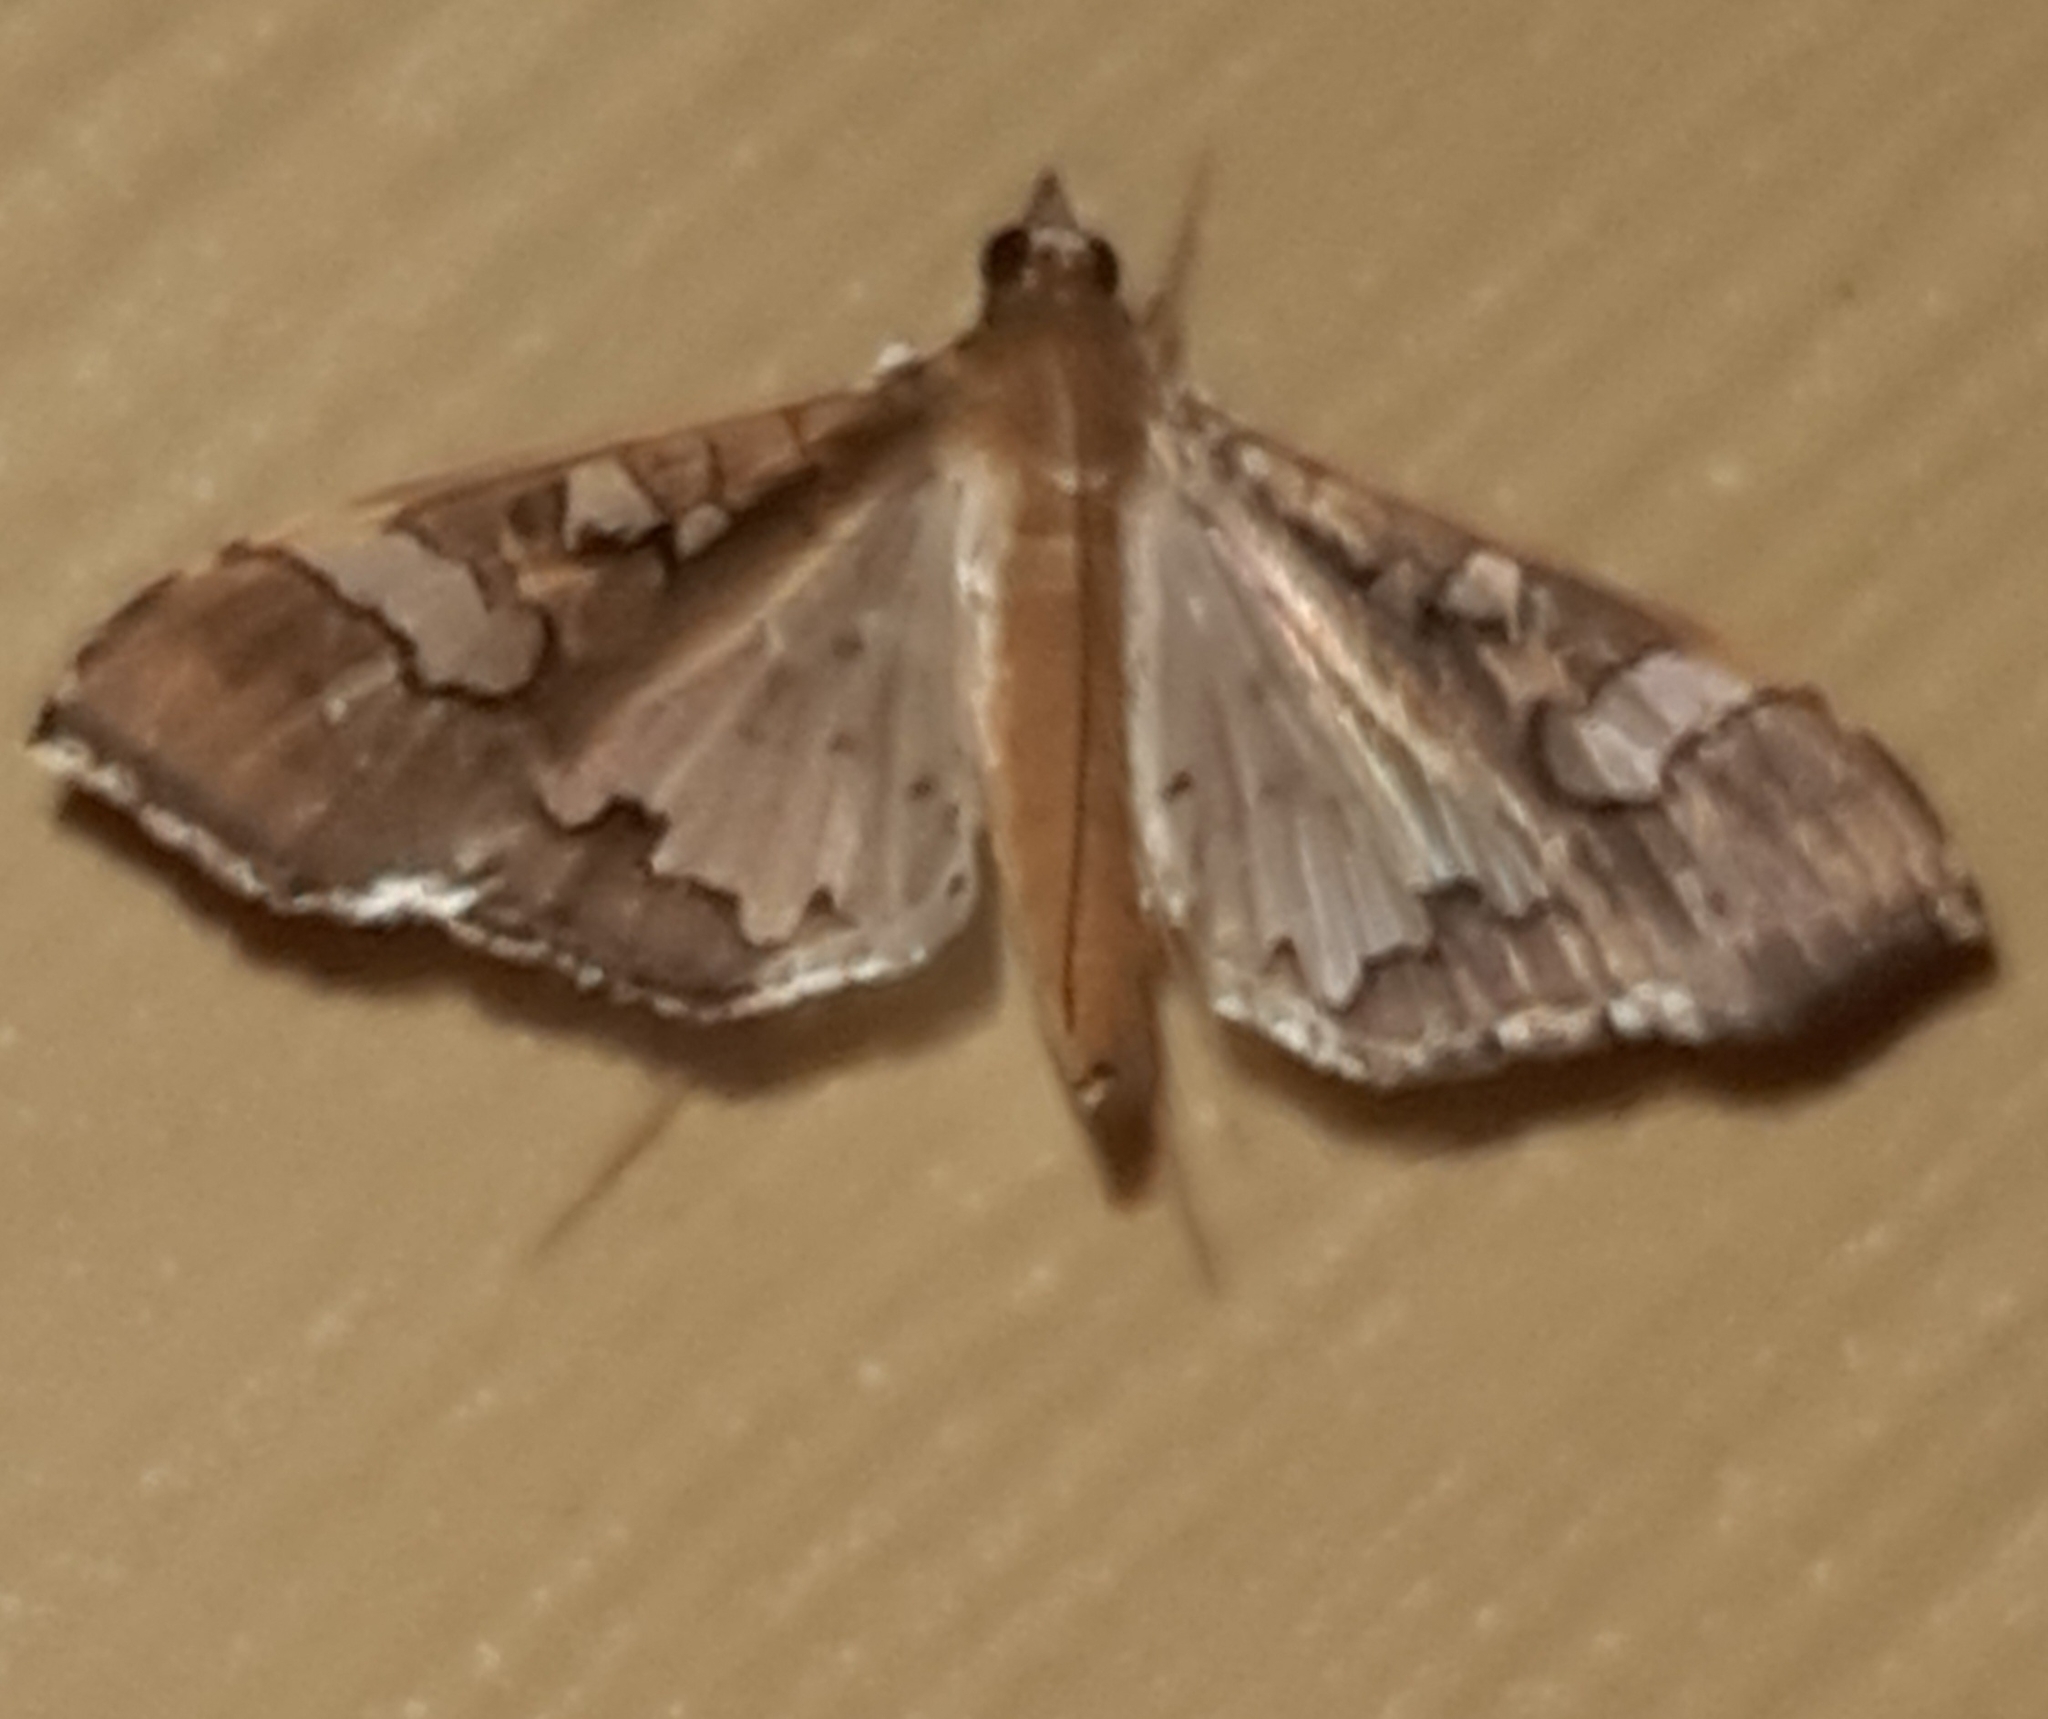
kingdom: Animalia
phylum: Arthropoda
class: Insecta
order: Lepidoptera
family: Crambidae
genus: Maruca
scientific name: Maruca vitrata
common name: Maruca pod borer
